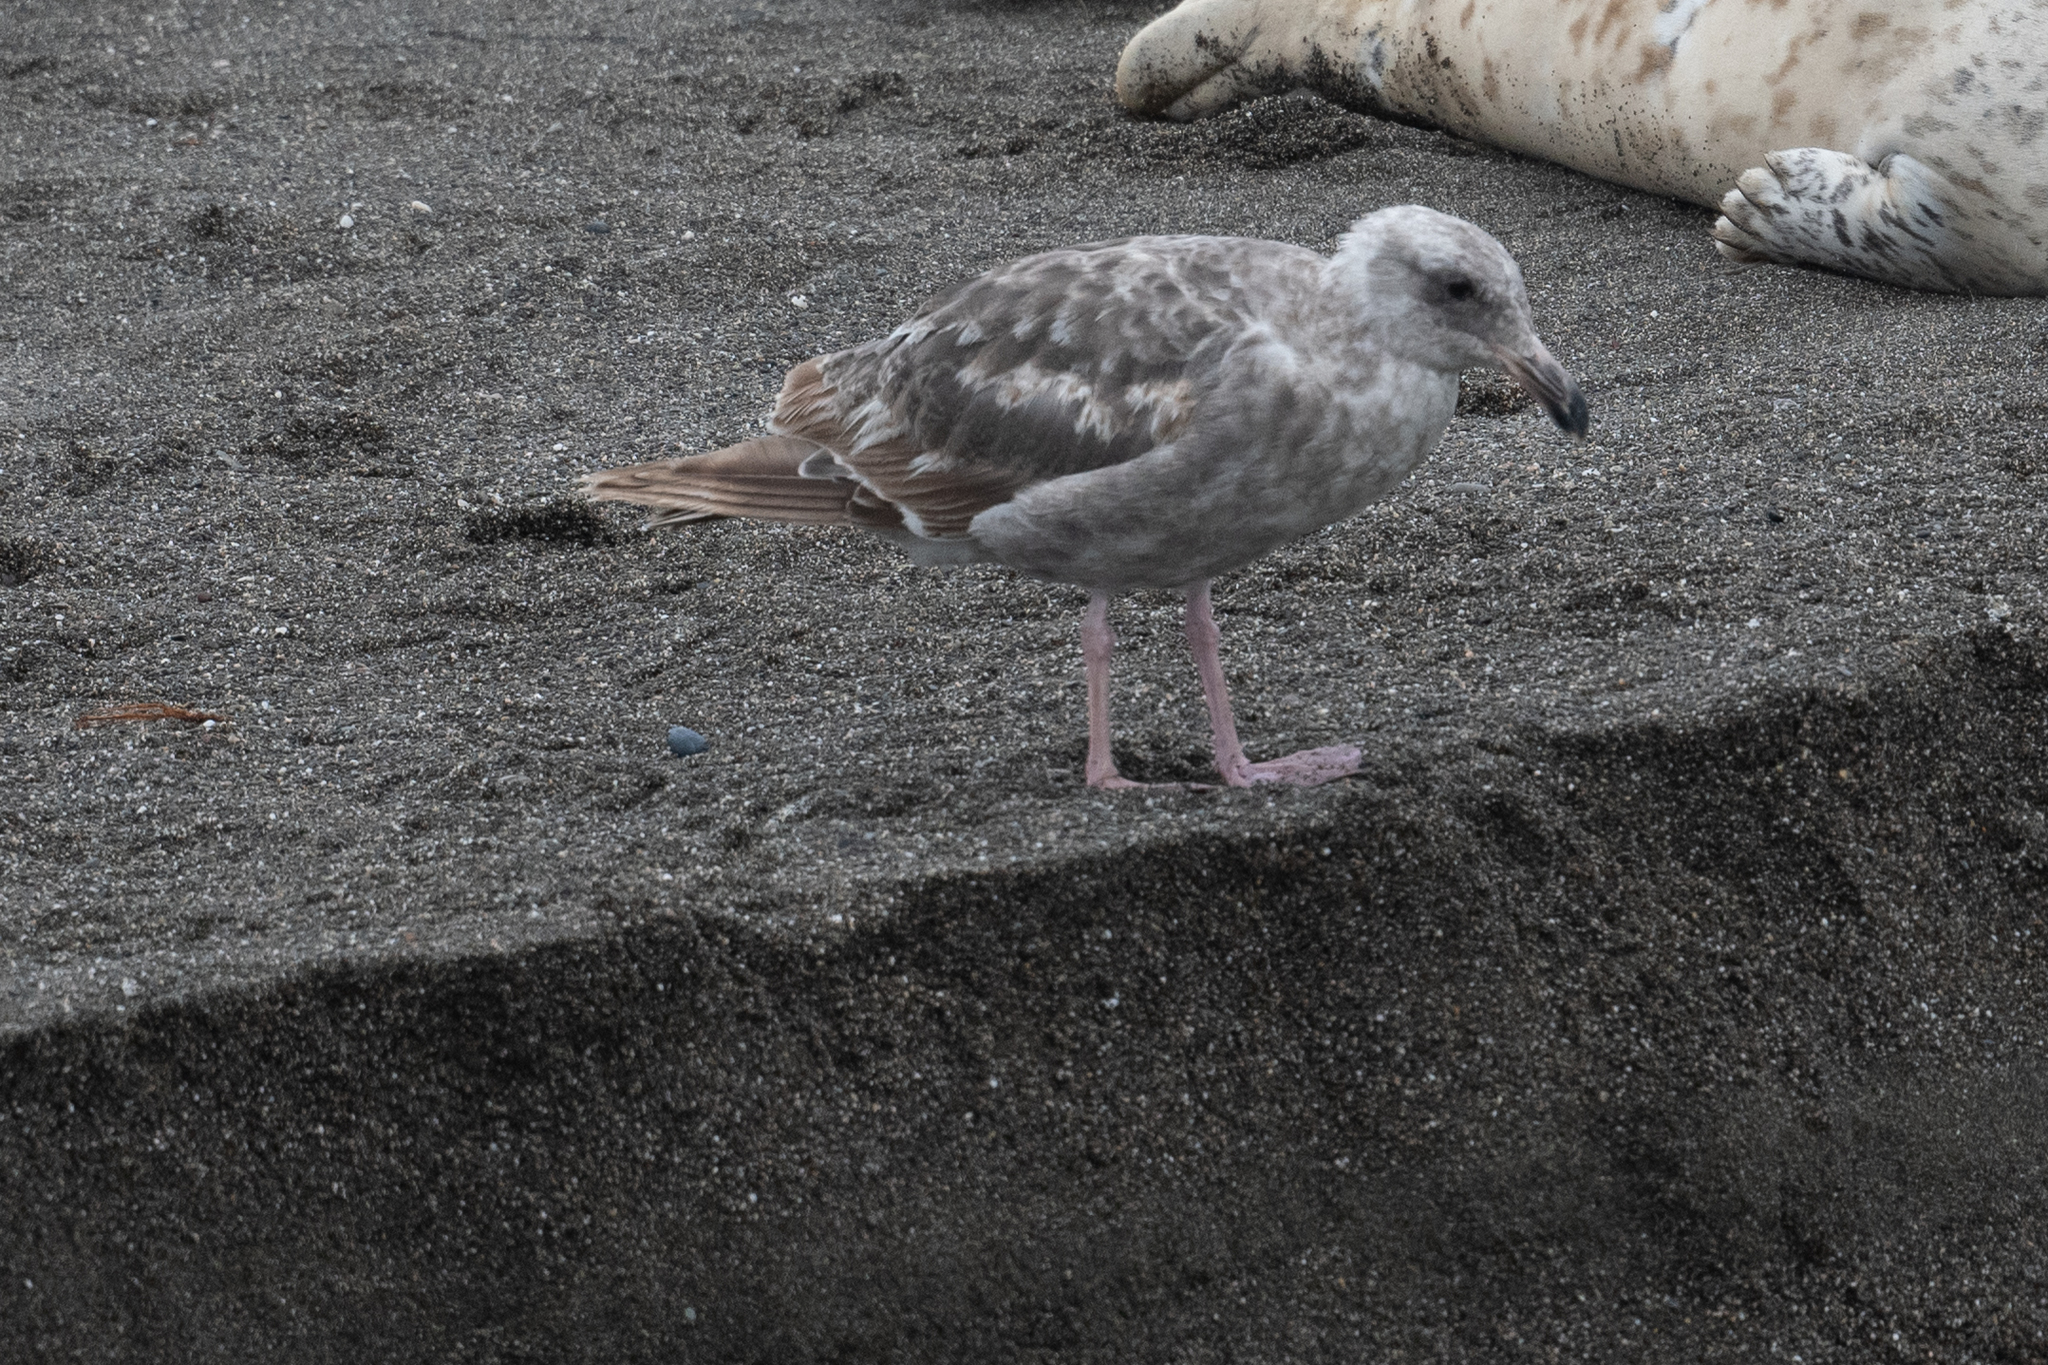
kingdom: Animalia
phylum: Chordata
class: Aves
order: Charadriiformes
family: Laridae
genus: Larus
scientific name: Larus occidentalis
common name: Western gull
